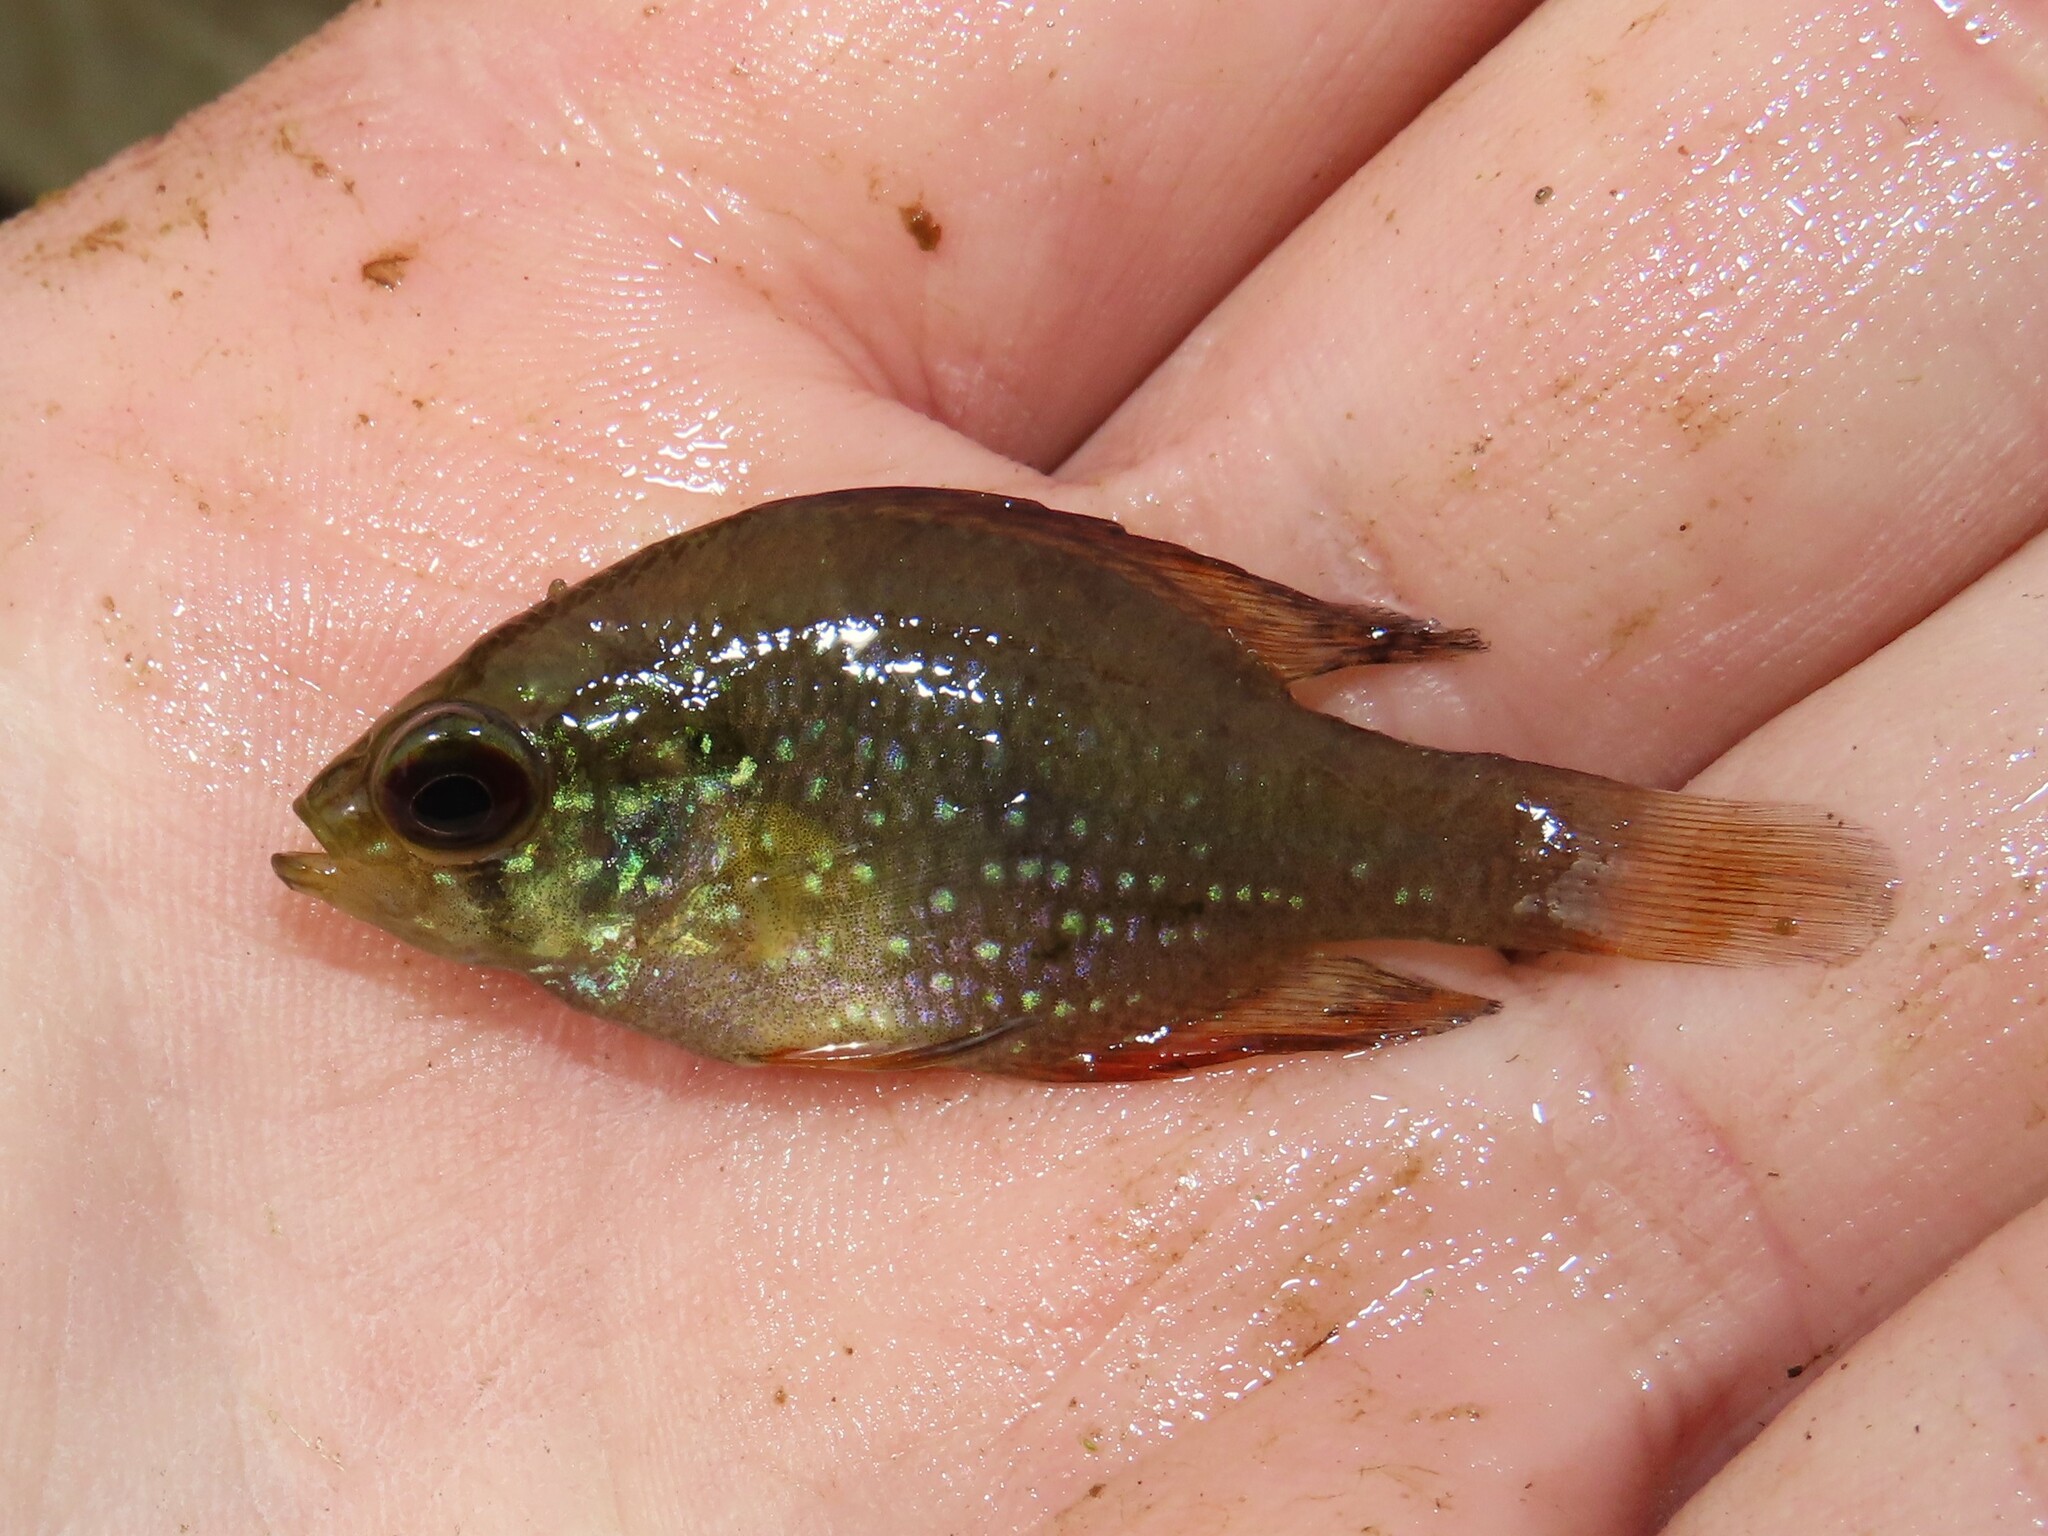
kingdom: Animalia
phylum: Chordata
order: Perciformes
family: Centrarchidae
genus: Enneacanthus
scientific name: Enneacanthus gloriosus
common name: Bluespotted sunfish
